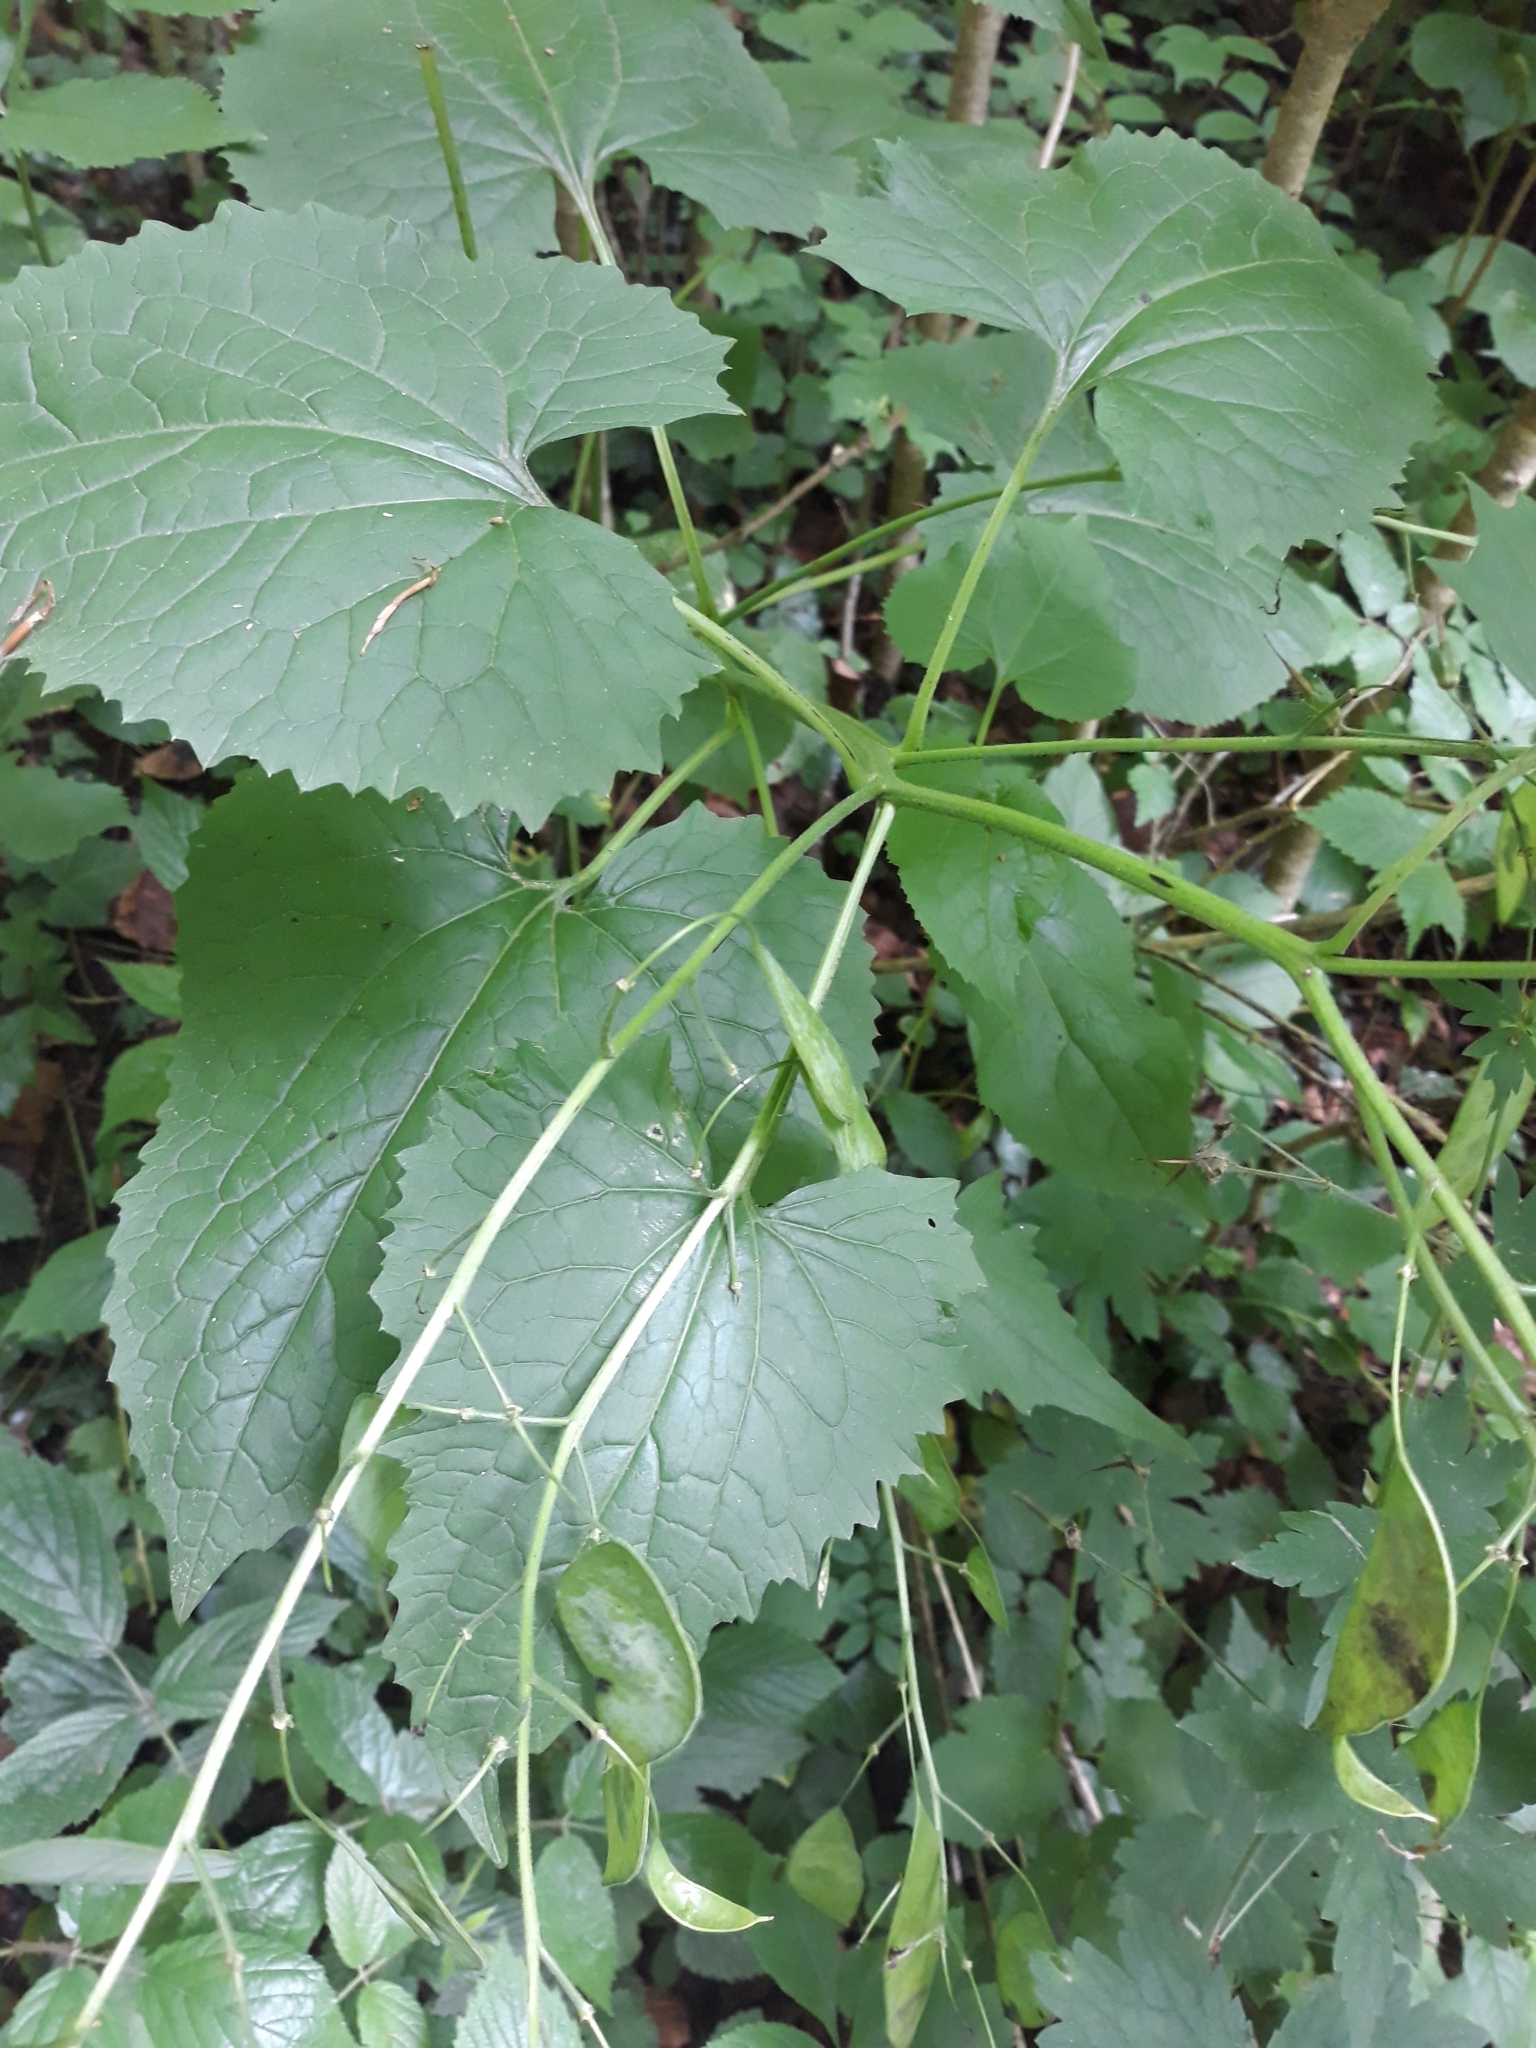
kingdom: Plantae
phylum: Tracheophyta
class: Magnoliopsida
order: Brassicales
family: Brassicaceae
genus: Lunaria
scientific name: Lunaria rediviva
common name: Perennial honesty
